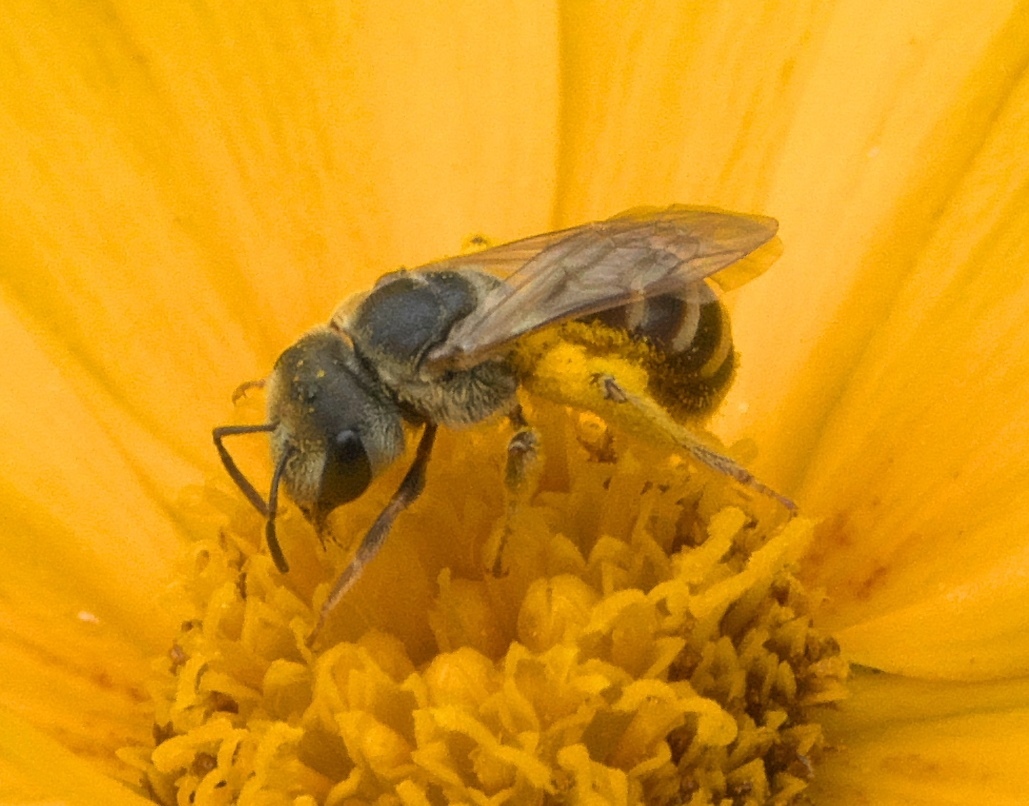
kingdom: Animalia
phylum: Arthropoda
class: Insecta
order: Hymenoptera
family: Halictidae
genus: Halictus
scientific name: Halictus ligatus
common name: Ligated furrow bee
